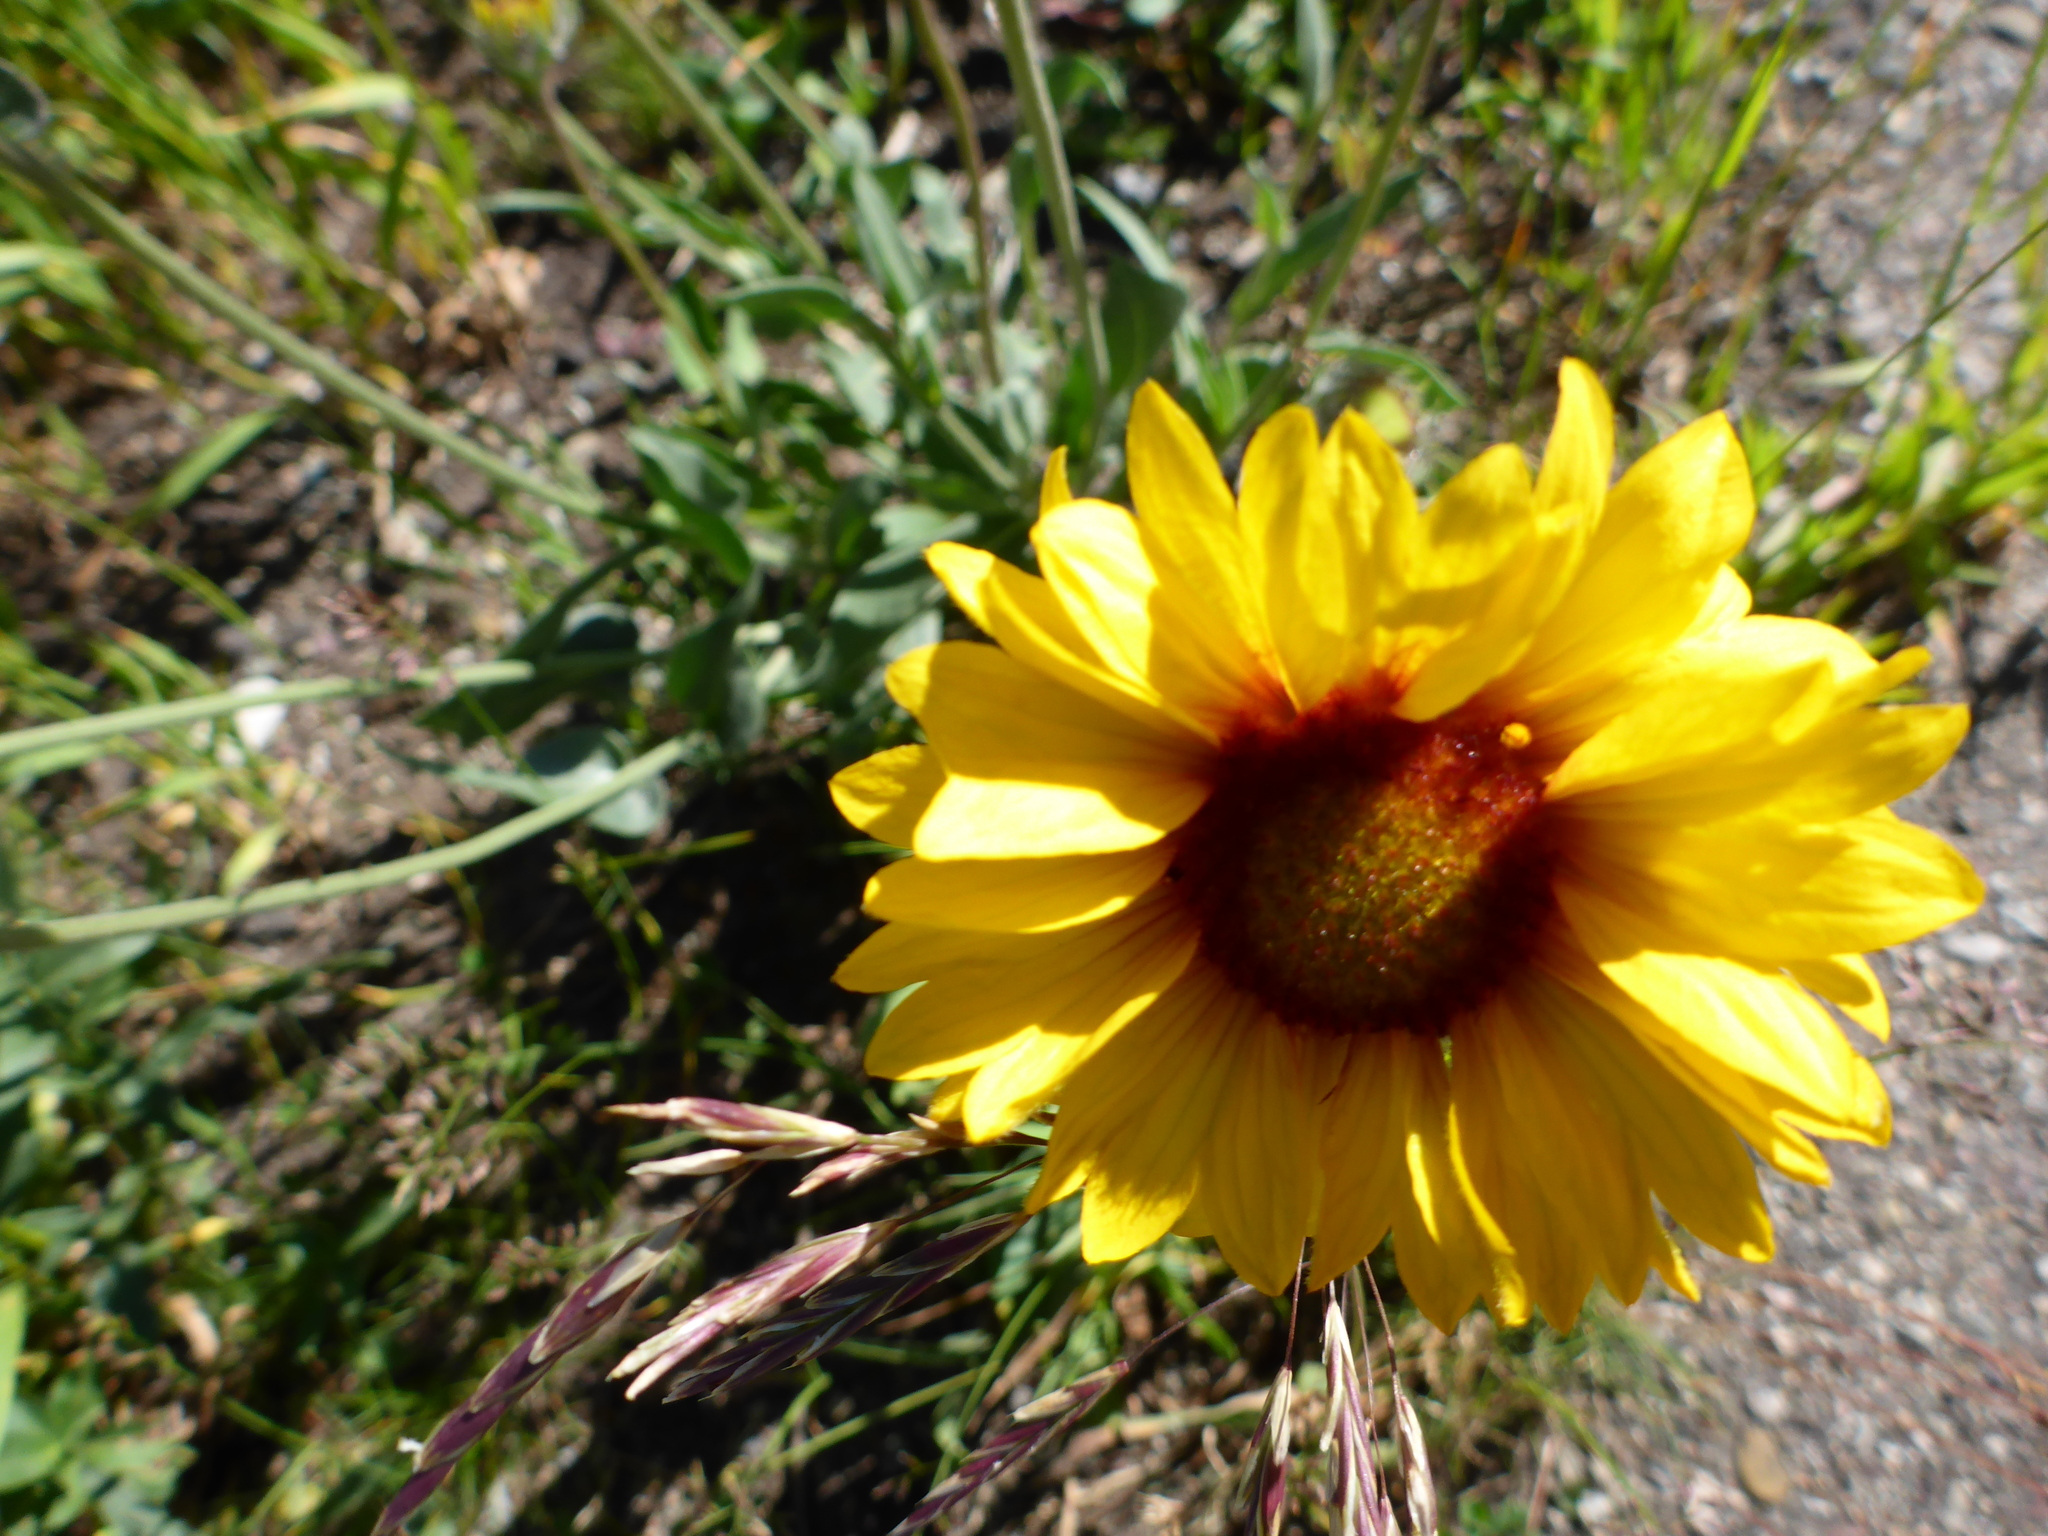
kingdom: Plantae
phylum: Tracheophyta
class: Magnoliopsida
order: Asterales
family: Asteraceae
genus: Gaillardia
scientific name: Gaillardia aristata
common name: Blanket-flower
